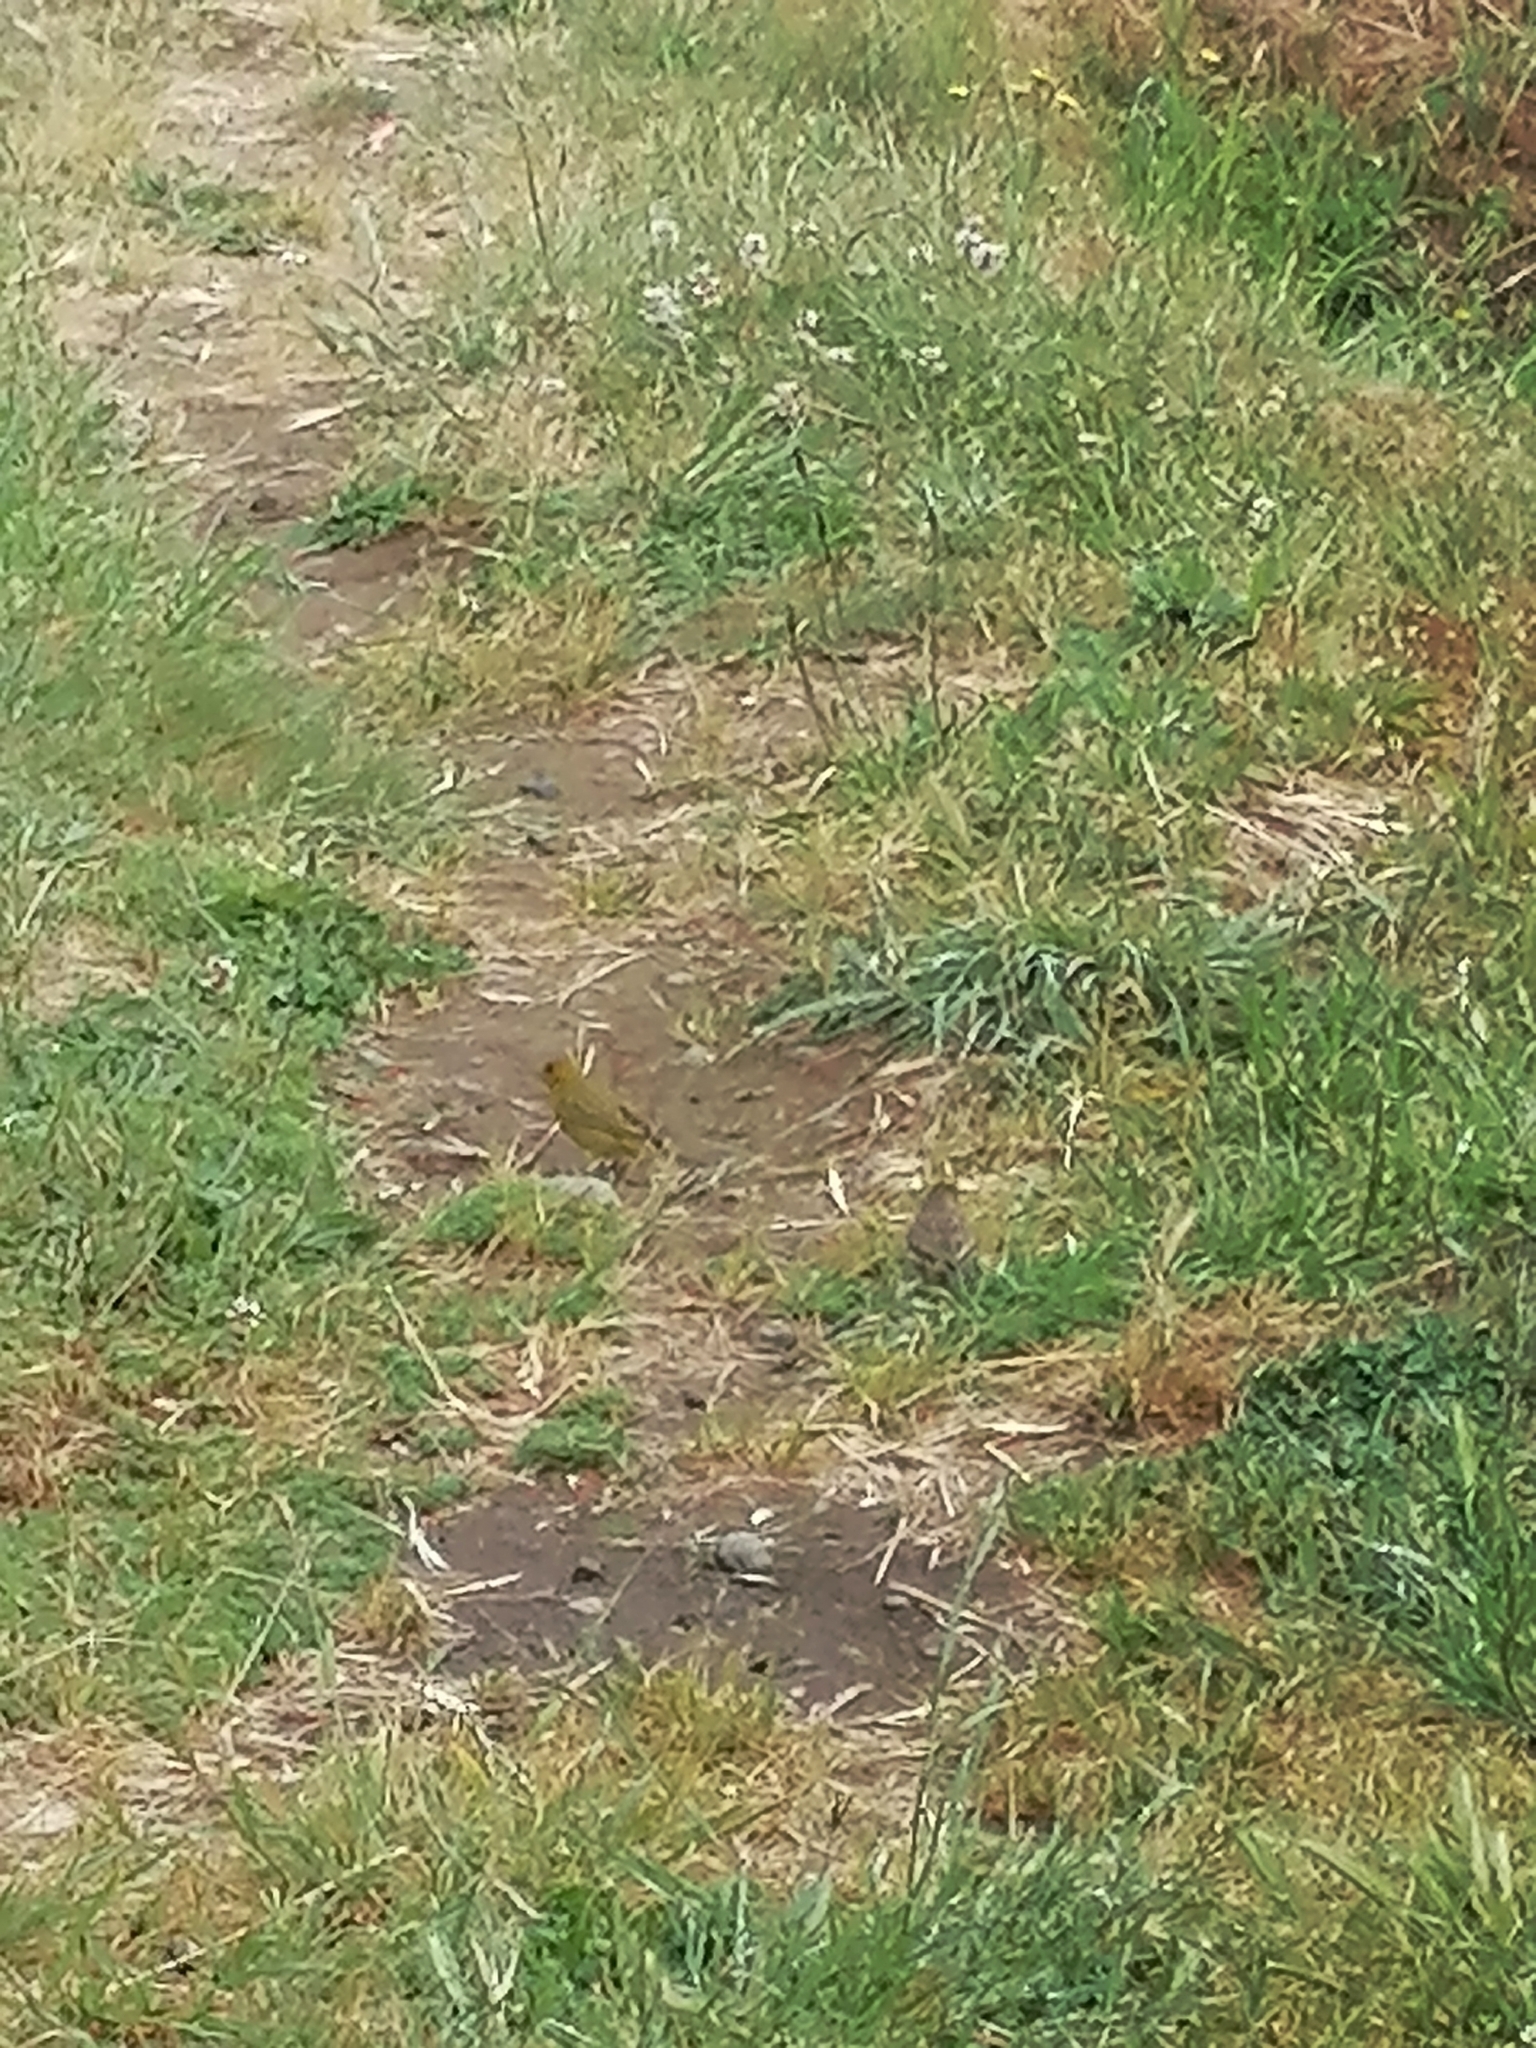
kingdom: Animalia
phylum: Chordata
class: Aves
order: Passeriformes
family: Thraupidae
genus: Sicalis
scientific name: Sicalis flaveola
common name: Saffron finch
